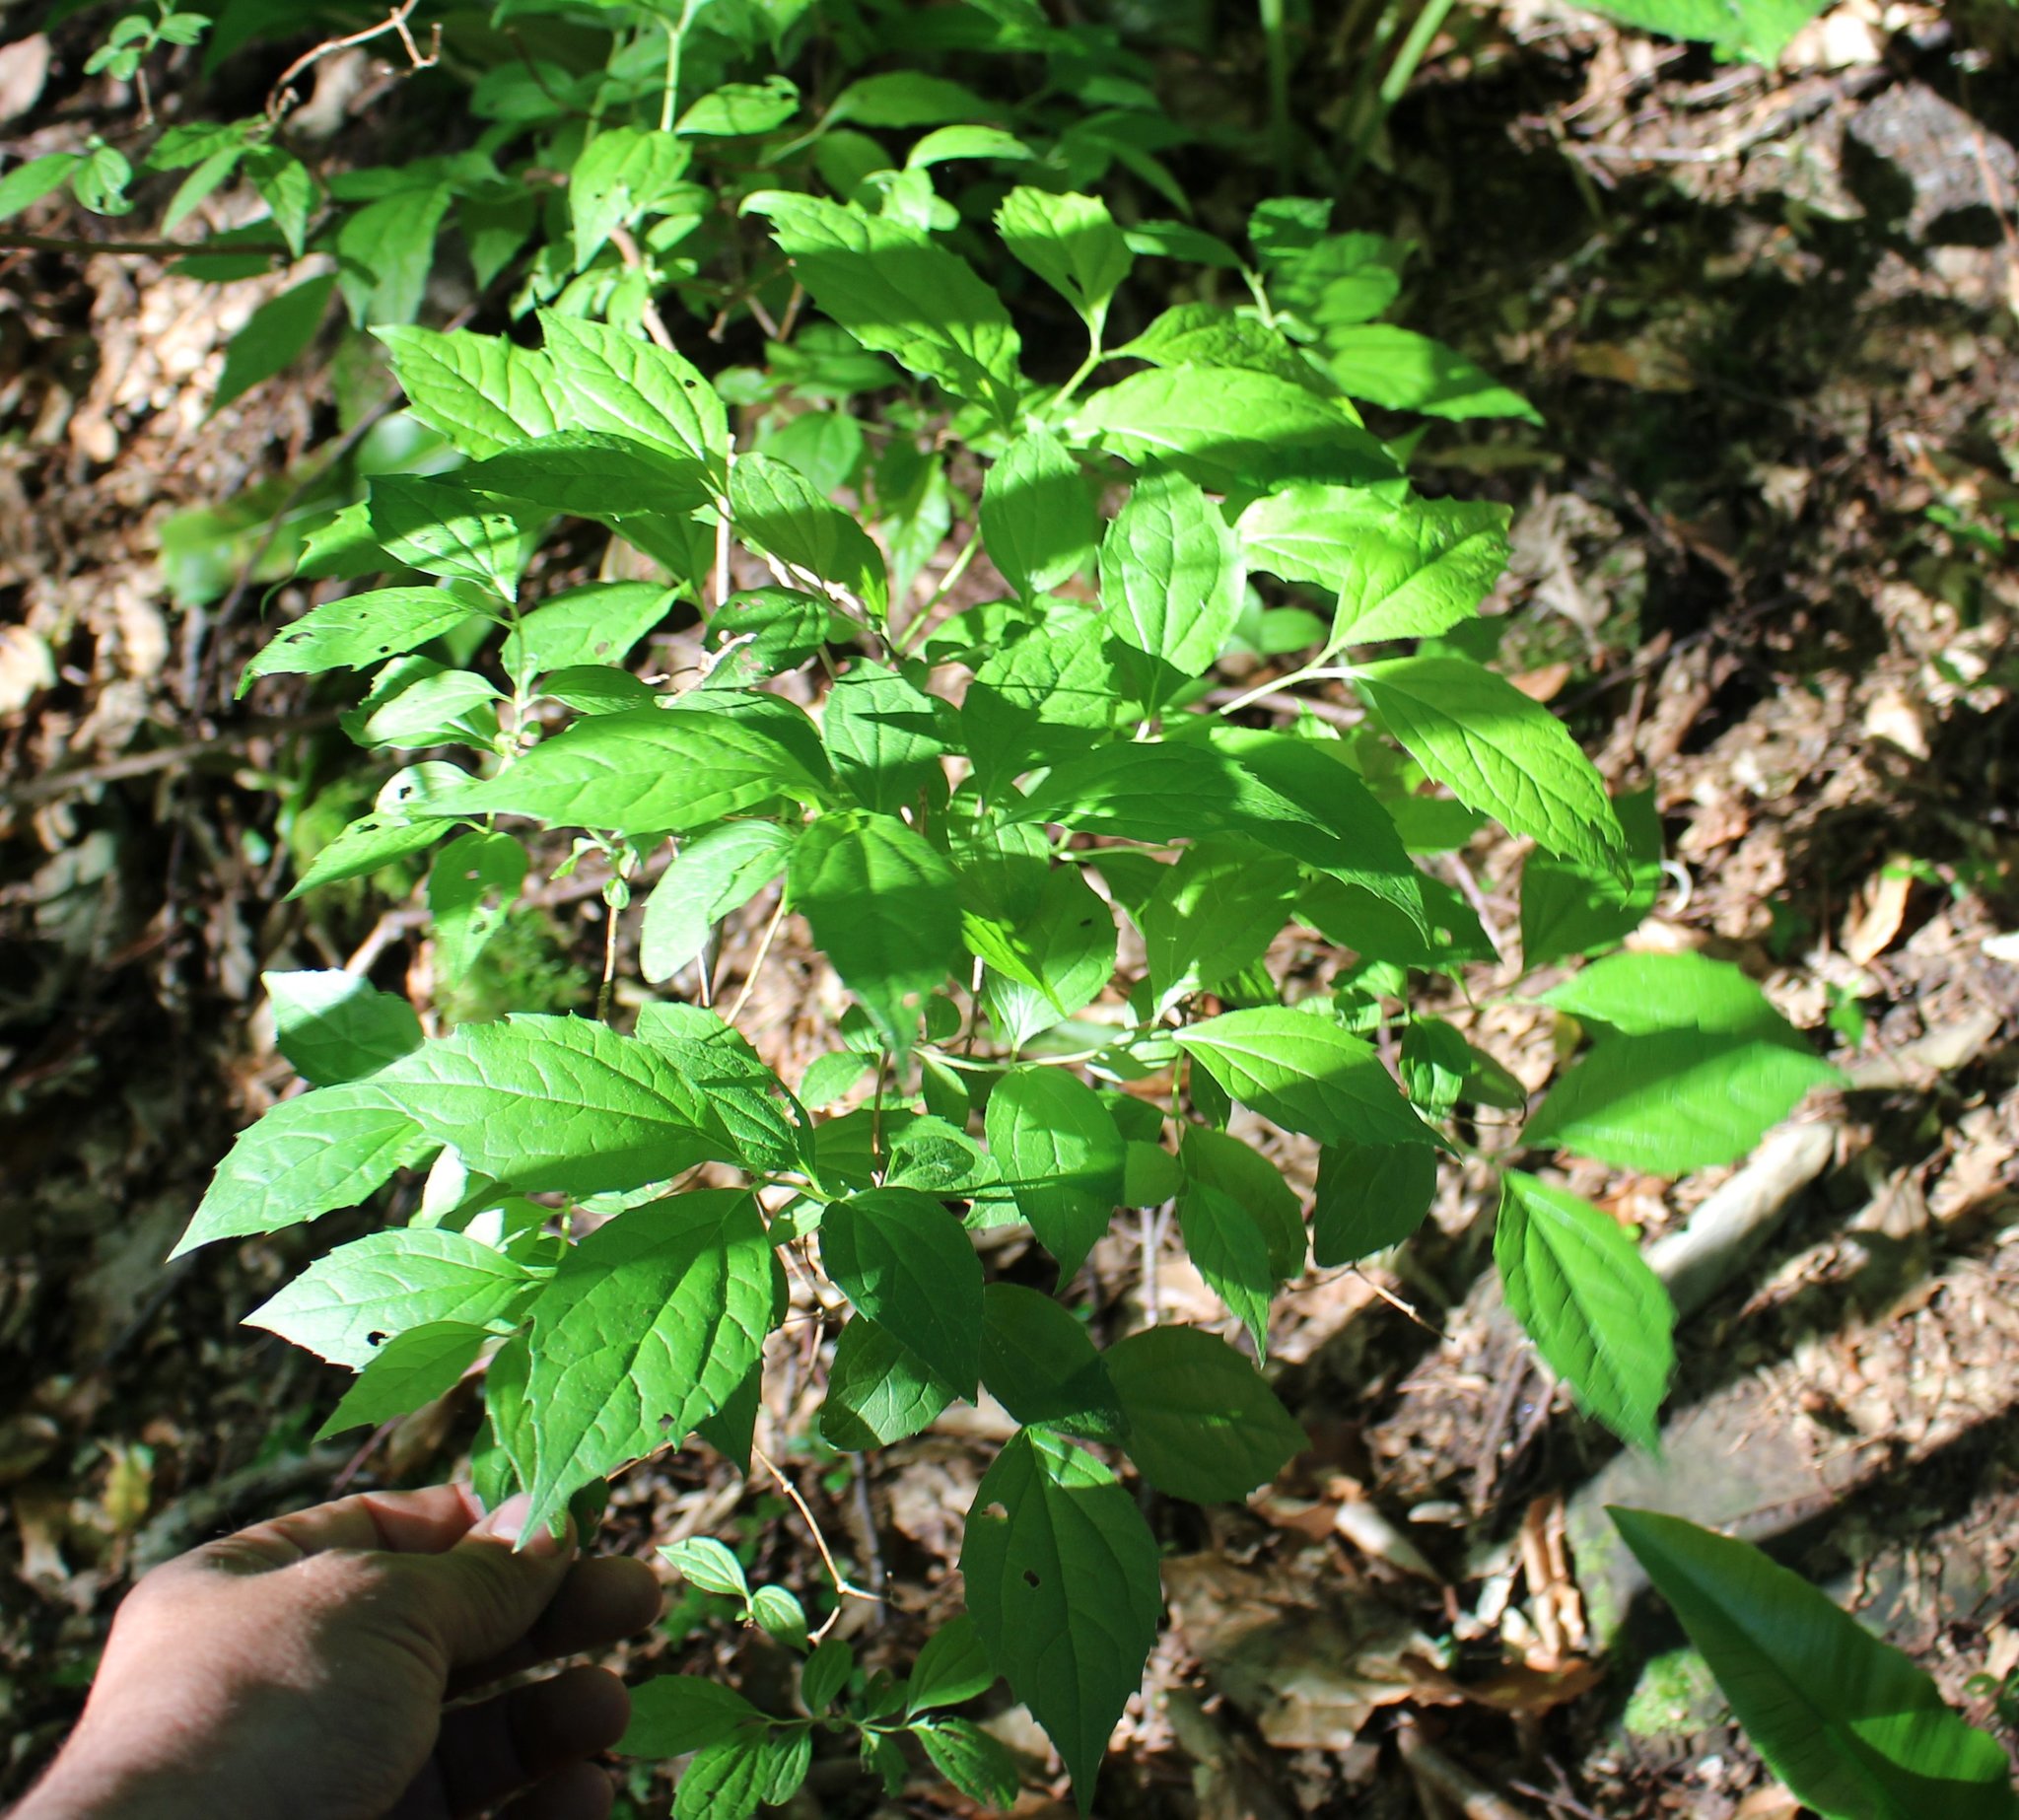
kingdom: Plantae
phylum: Tracheophyta
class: Magnoliopsida
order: Cornales
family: Hydrangeaceae
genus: Philadelphus
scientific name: Philadelphus coronarius
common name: Mock orange
